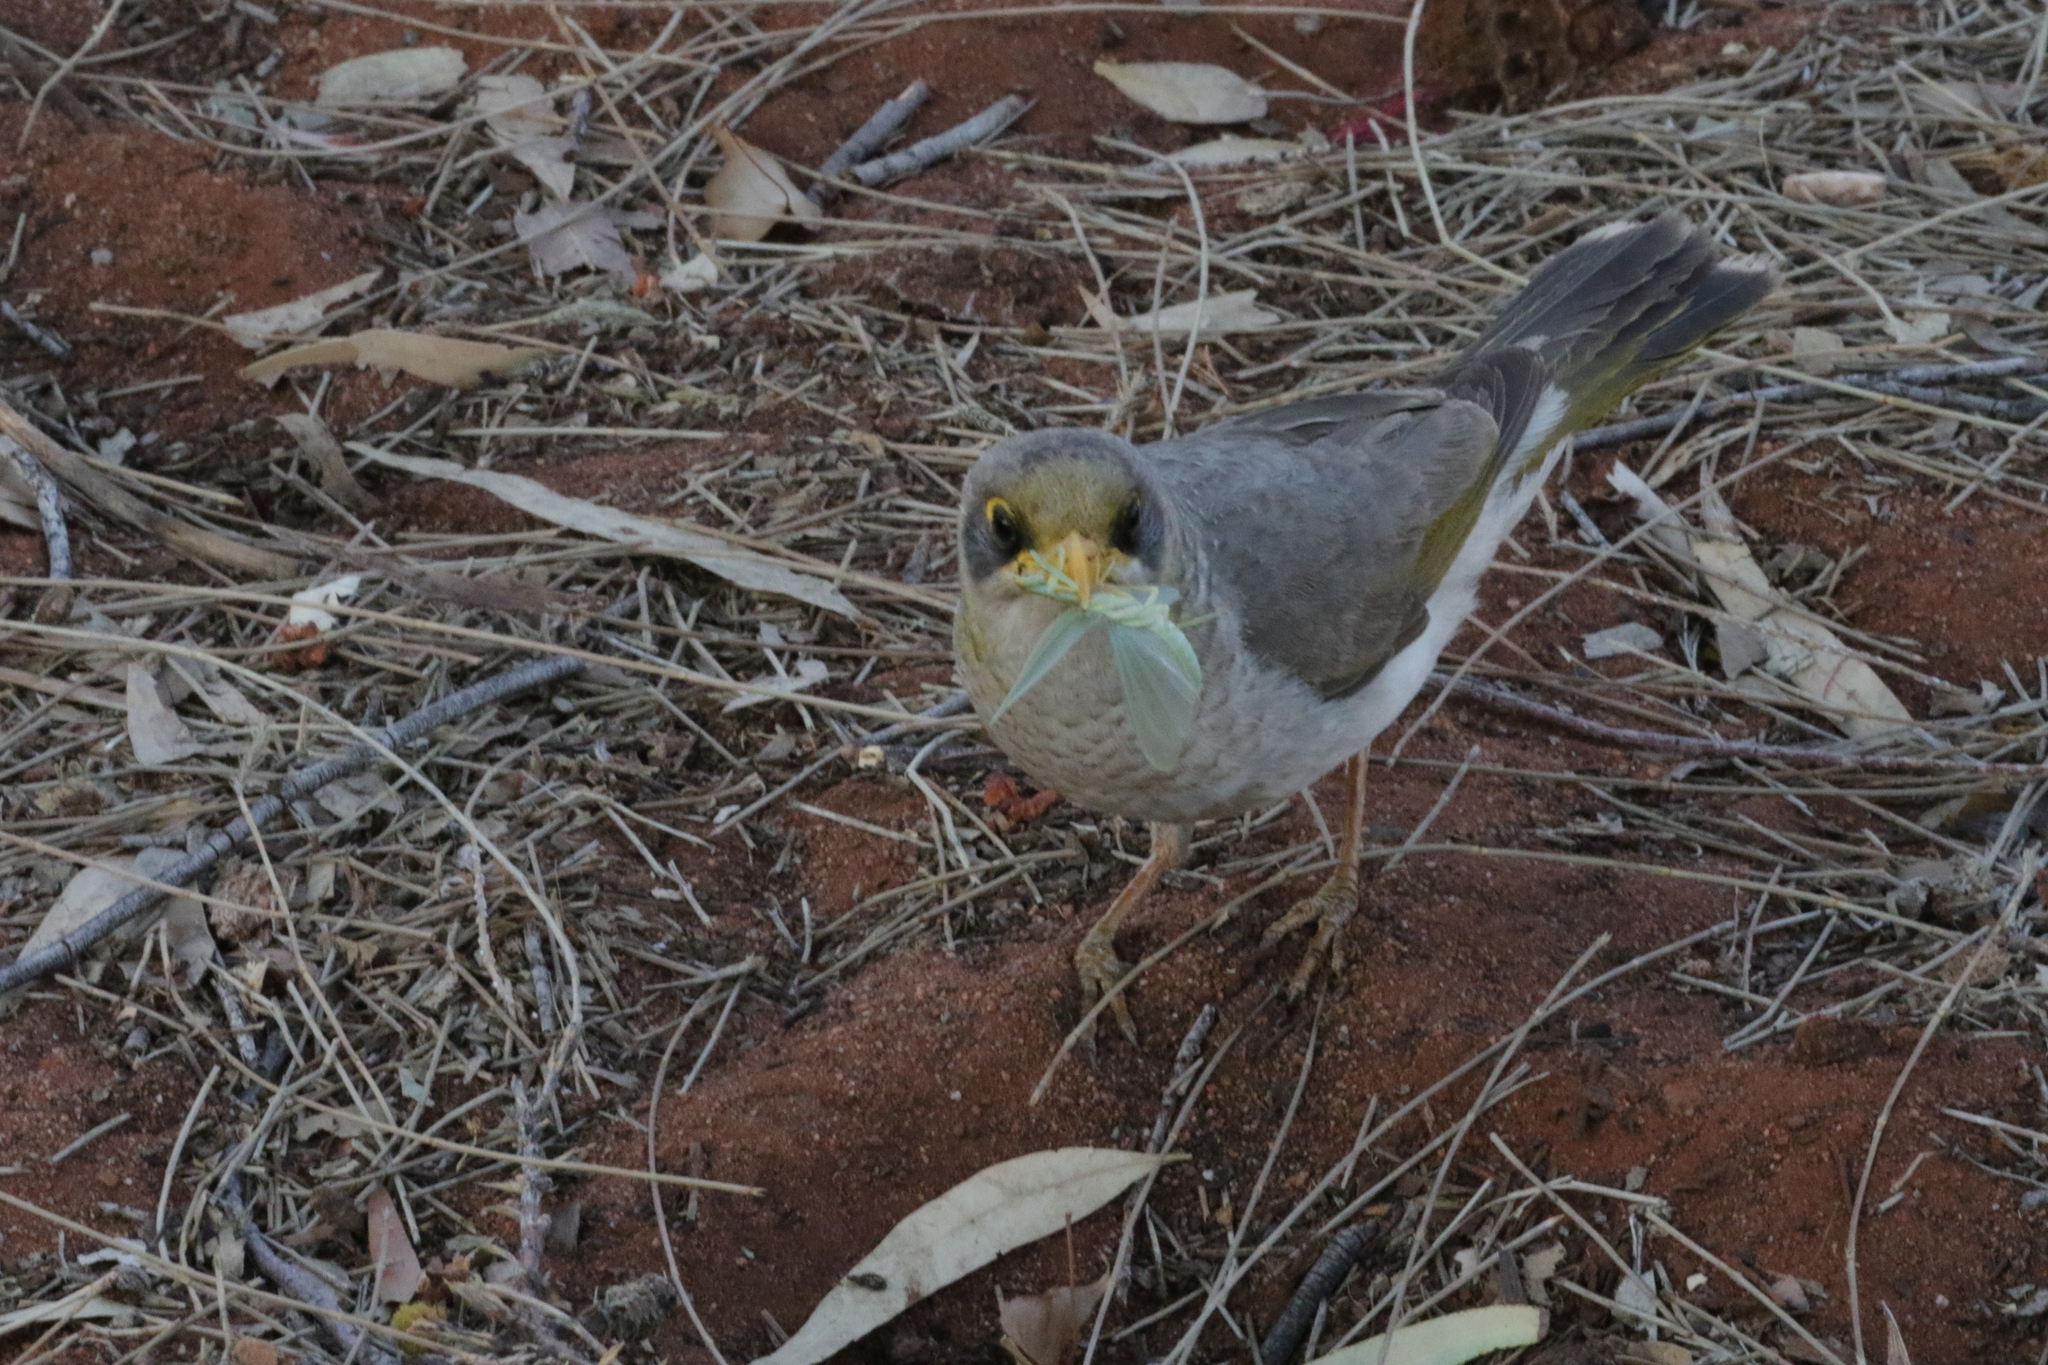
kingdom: Animalia
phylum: Chordata
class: Aves
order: Passeriformes
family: Meliphagidae
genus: Manorina
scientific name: Manorina flavigula
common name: Yellow-throated miner
